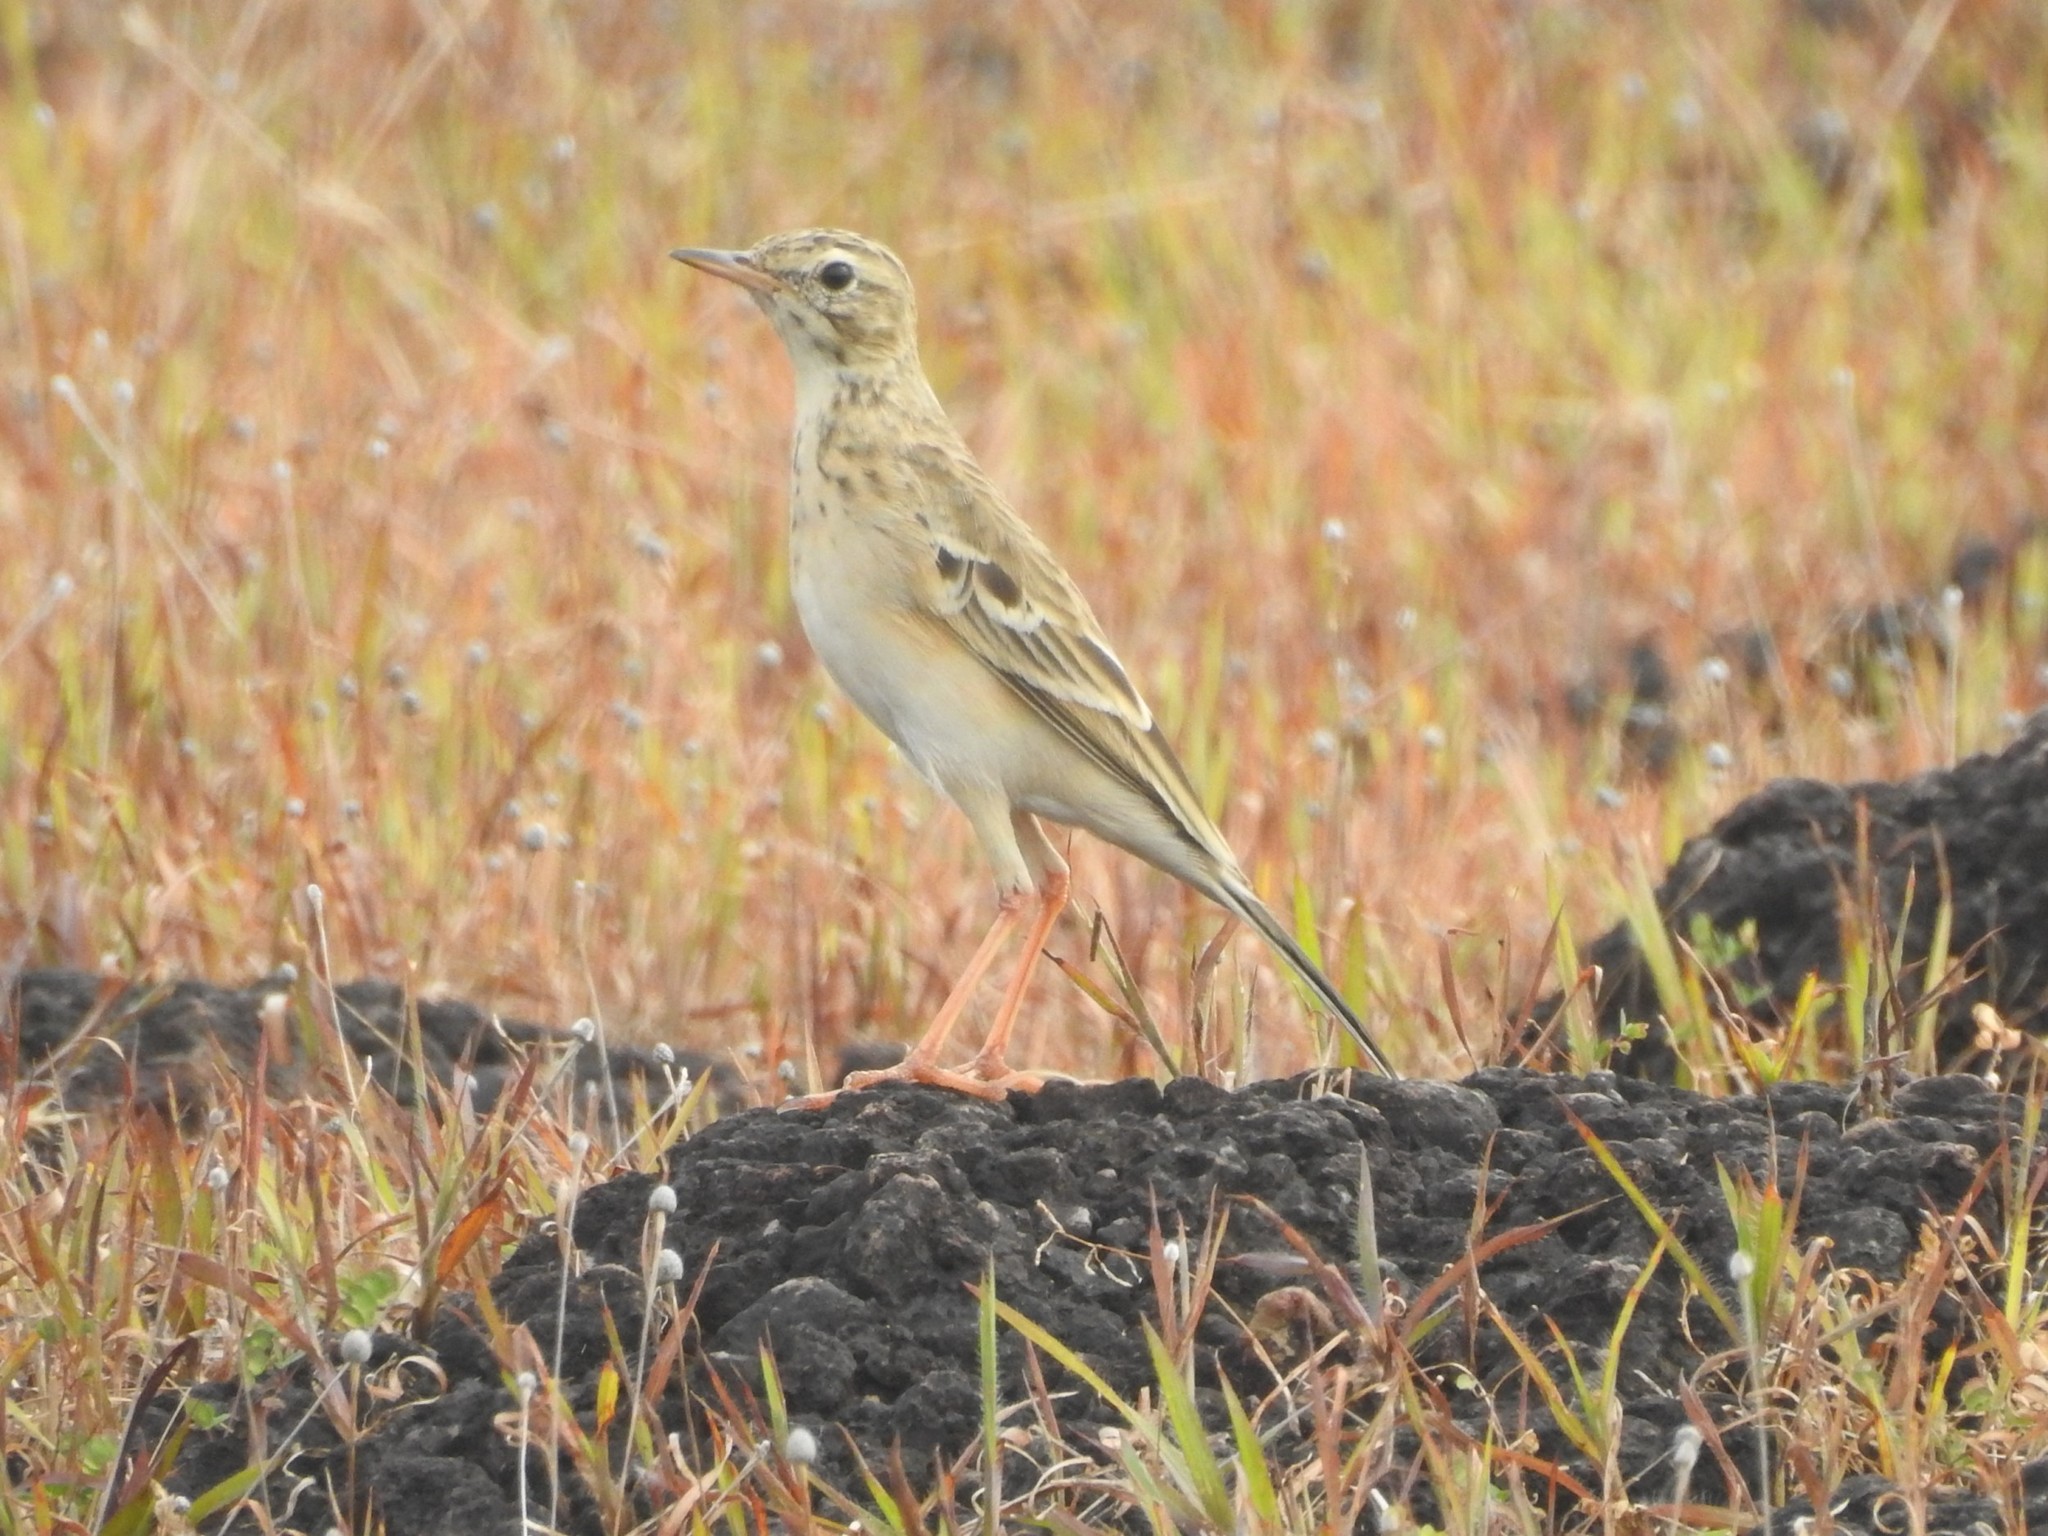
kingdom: Animalia
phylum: Chordata
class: Aves
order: Passeriformes
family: Motacillidae
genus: Anthus
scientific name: Anthus rufulus
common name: Paddyfield pipit
